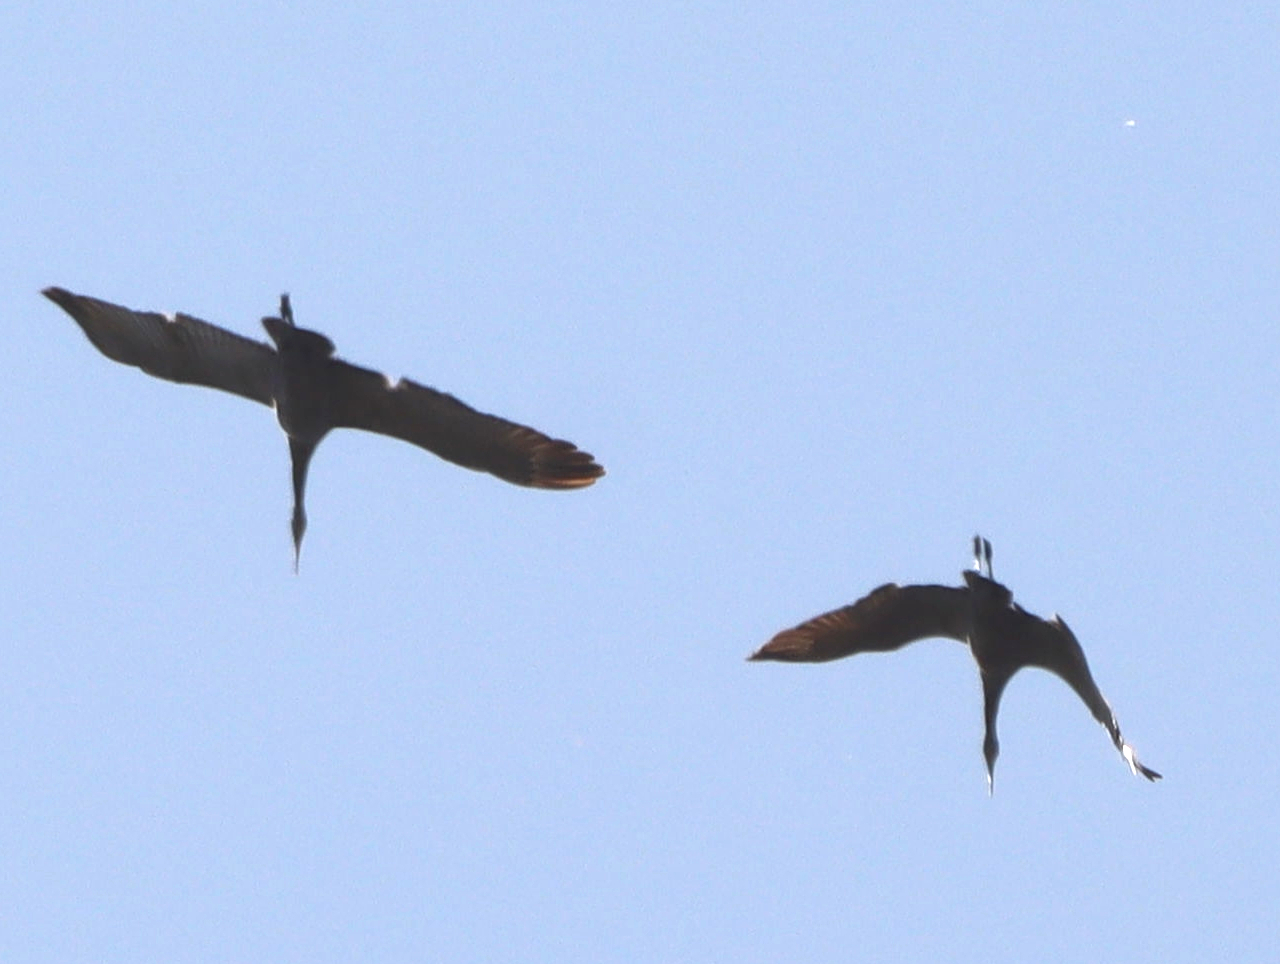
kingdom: Animalia
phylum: Chordata
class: Aves
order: Gruiformes
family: Gruidae
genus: Grus
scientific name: Grus canadensis
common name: Sandhill crane
